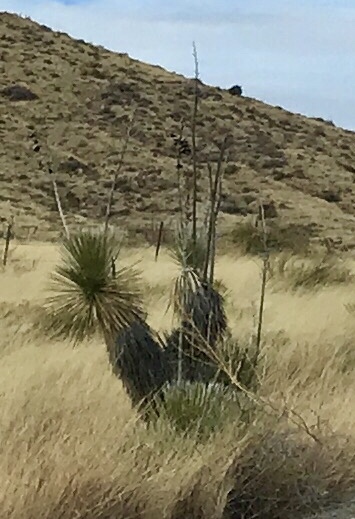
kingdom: Plantae
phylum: Tracheophyta
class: Liliopsida
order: Asparagales
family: Asparagaceae
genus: Yucca
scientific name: Yucca elata
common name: Palmella
